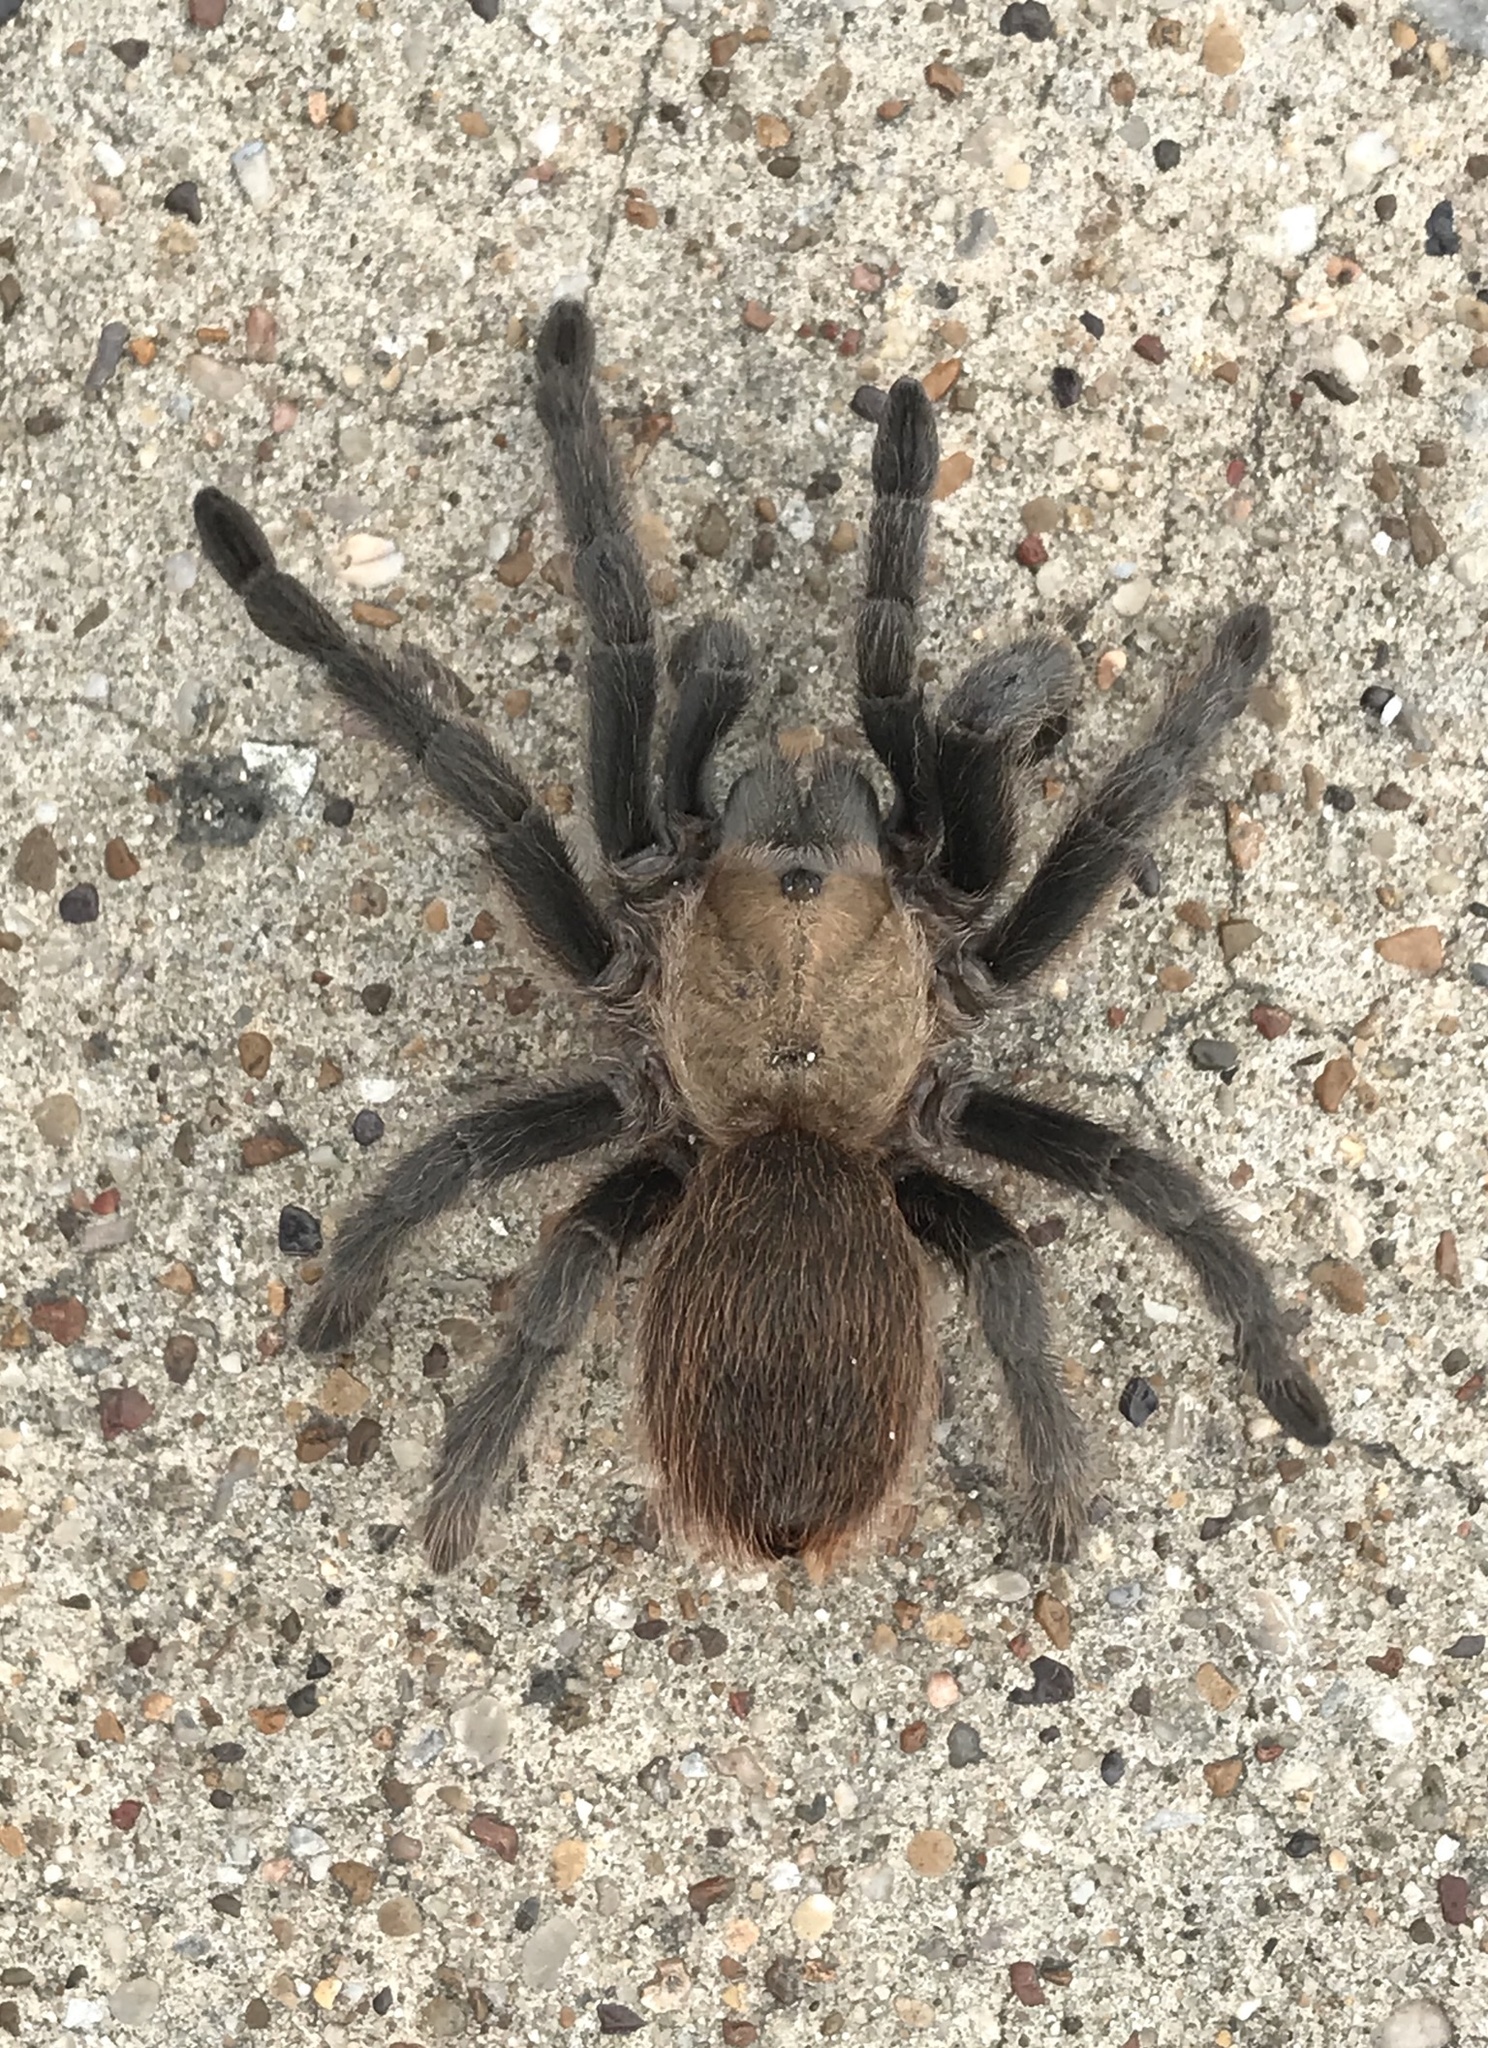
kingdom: Animalia
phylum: Arthropoda
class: Arachnida
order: Araneae
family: Theraphosidae
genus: Aphonopelma
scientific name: Aphonopelma hentzi
